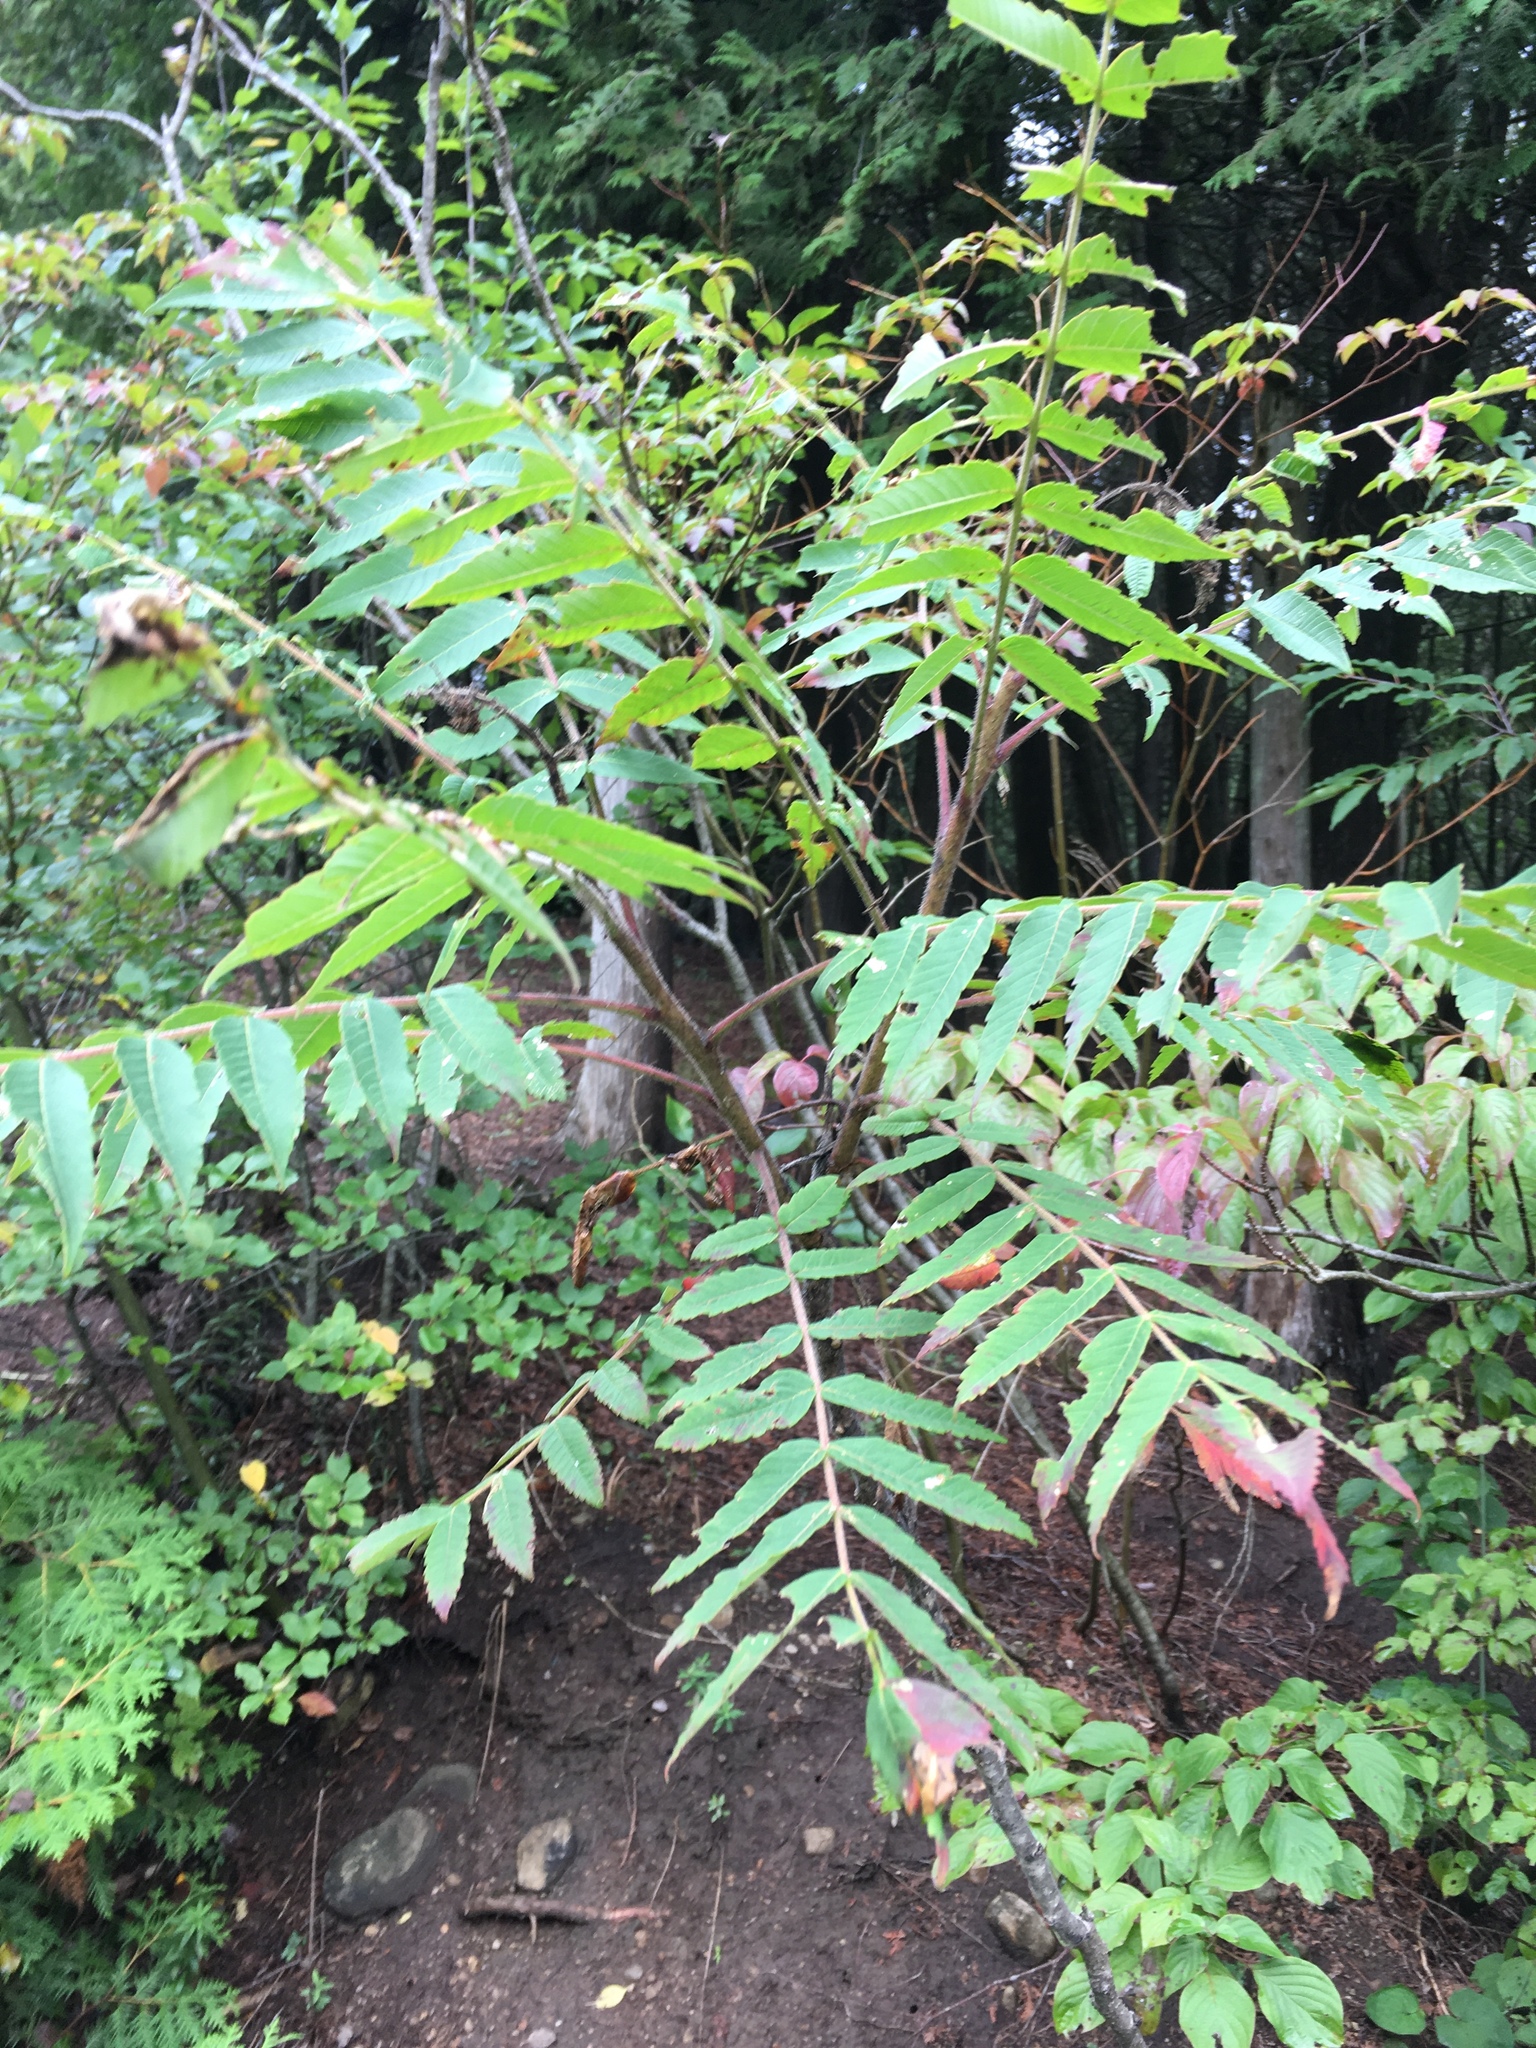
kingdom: Plantae
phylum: Tracheophyta
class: Magnoliopsida
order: Sapindales
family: Anacardiaceae
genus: Rhus
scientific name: Rhus typhina
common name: Staghorn sumac
